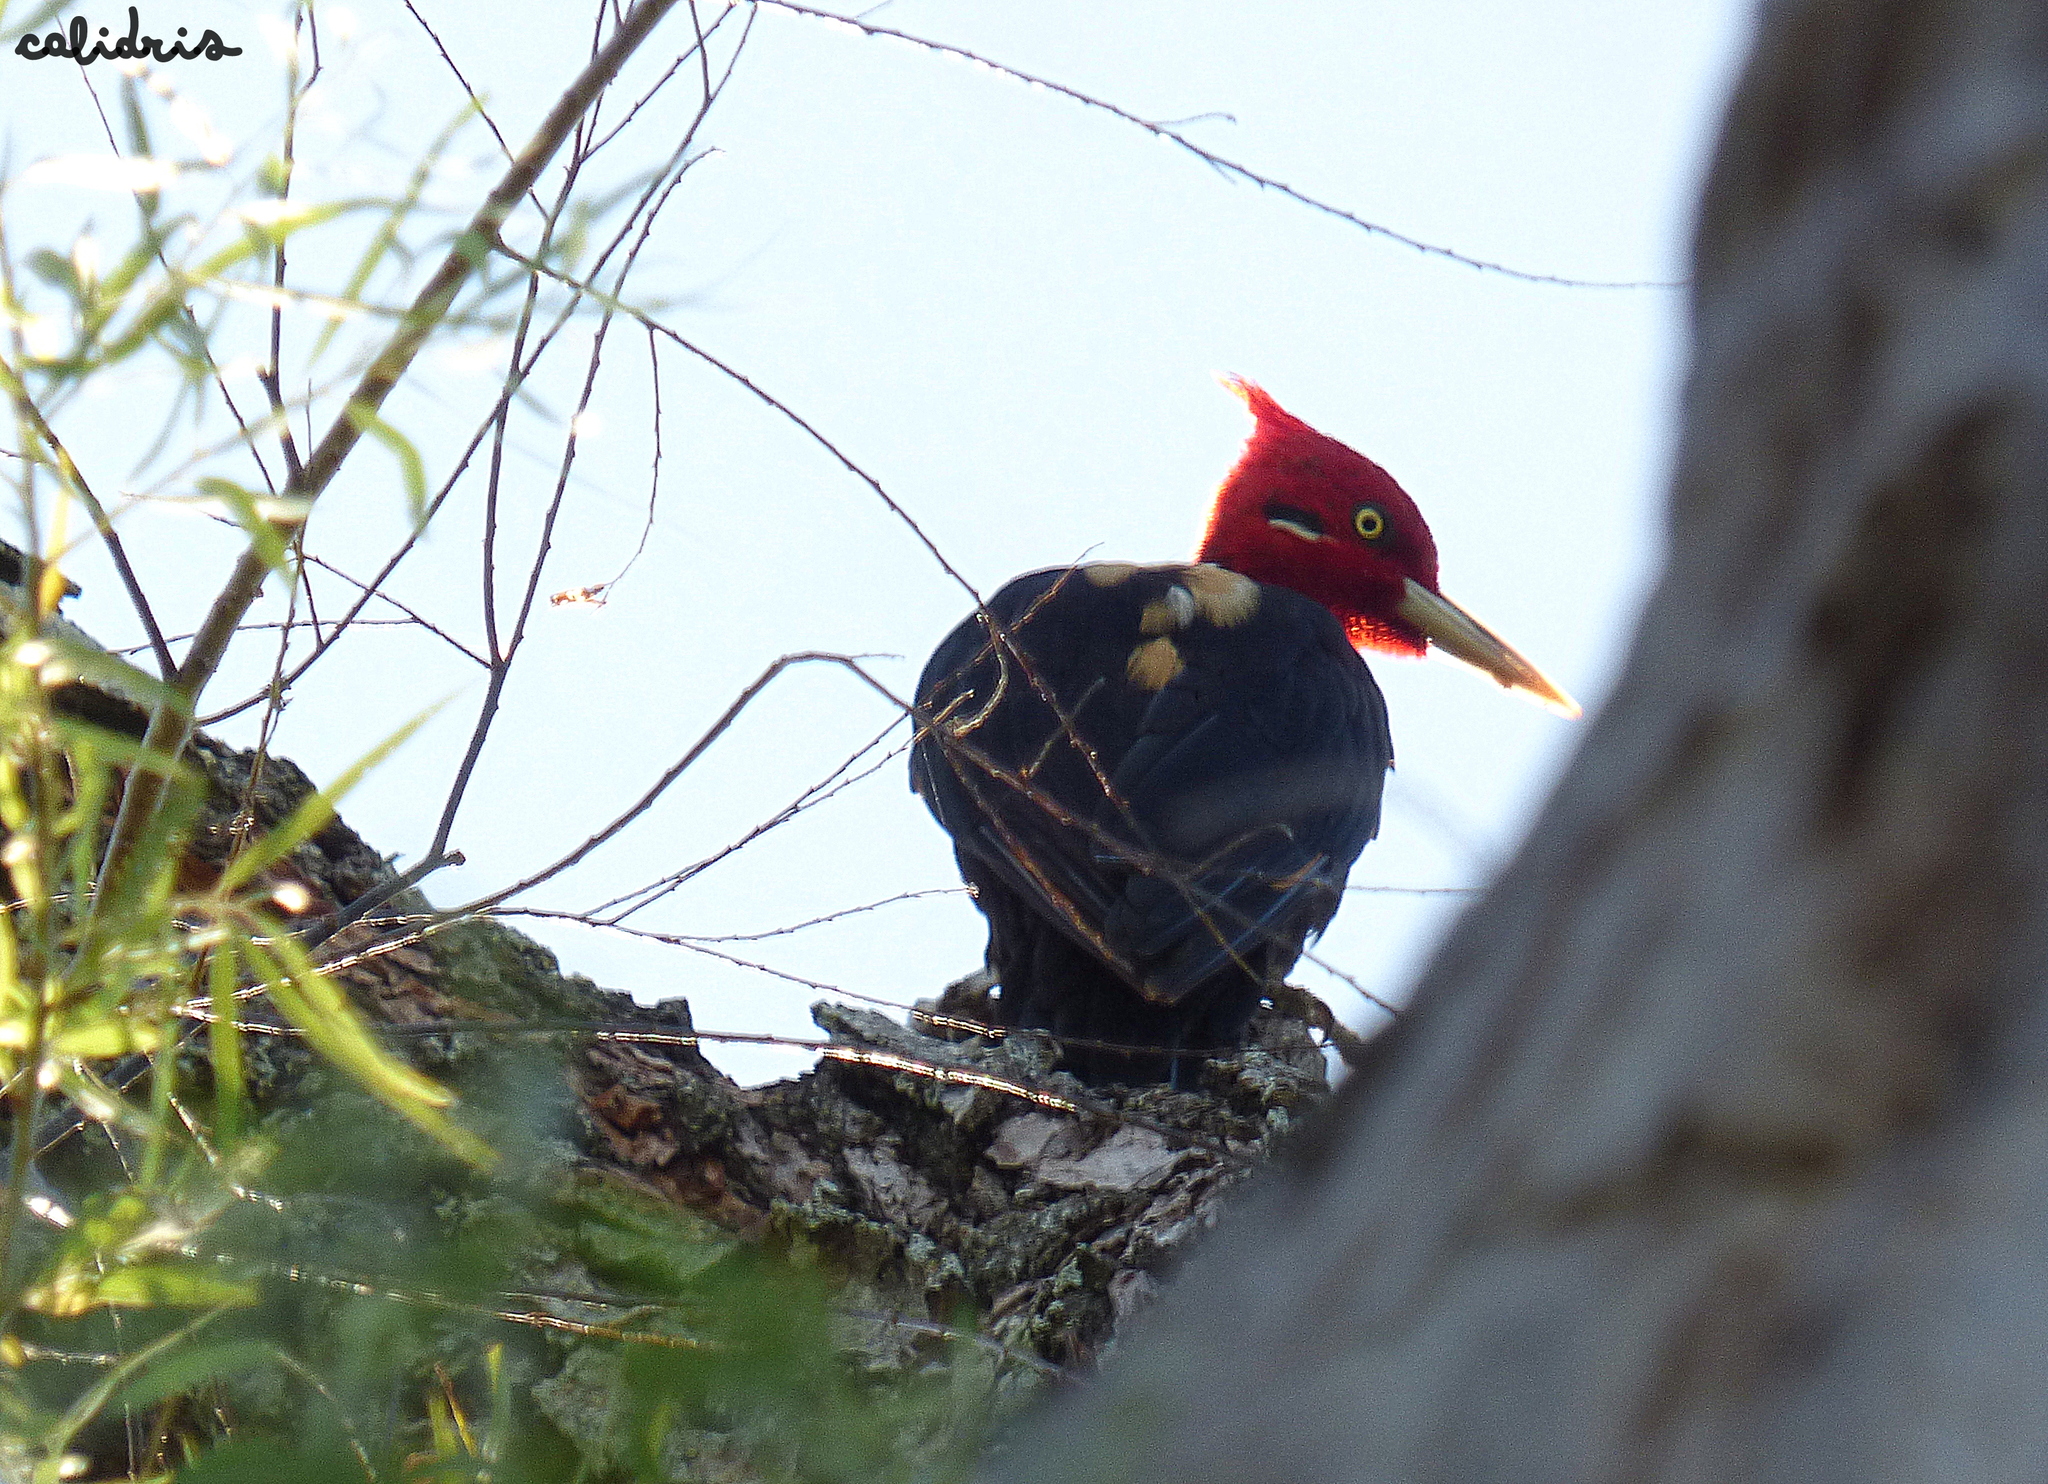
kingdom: Animalia
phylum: Chordata
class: Aves
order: Piciformes
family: Picidae
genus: Campephilus
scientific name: Campephilus leucopogon
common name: Cream-backed woodpecker
